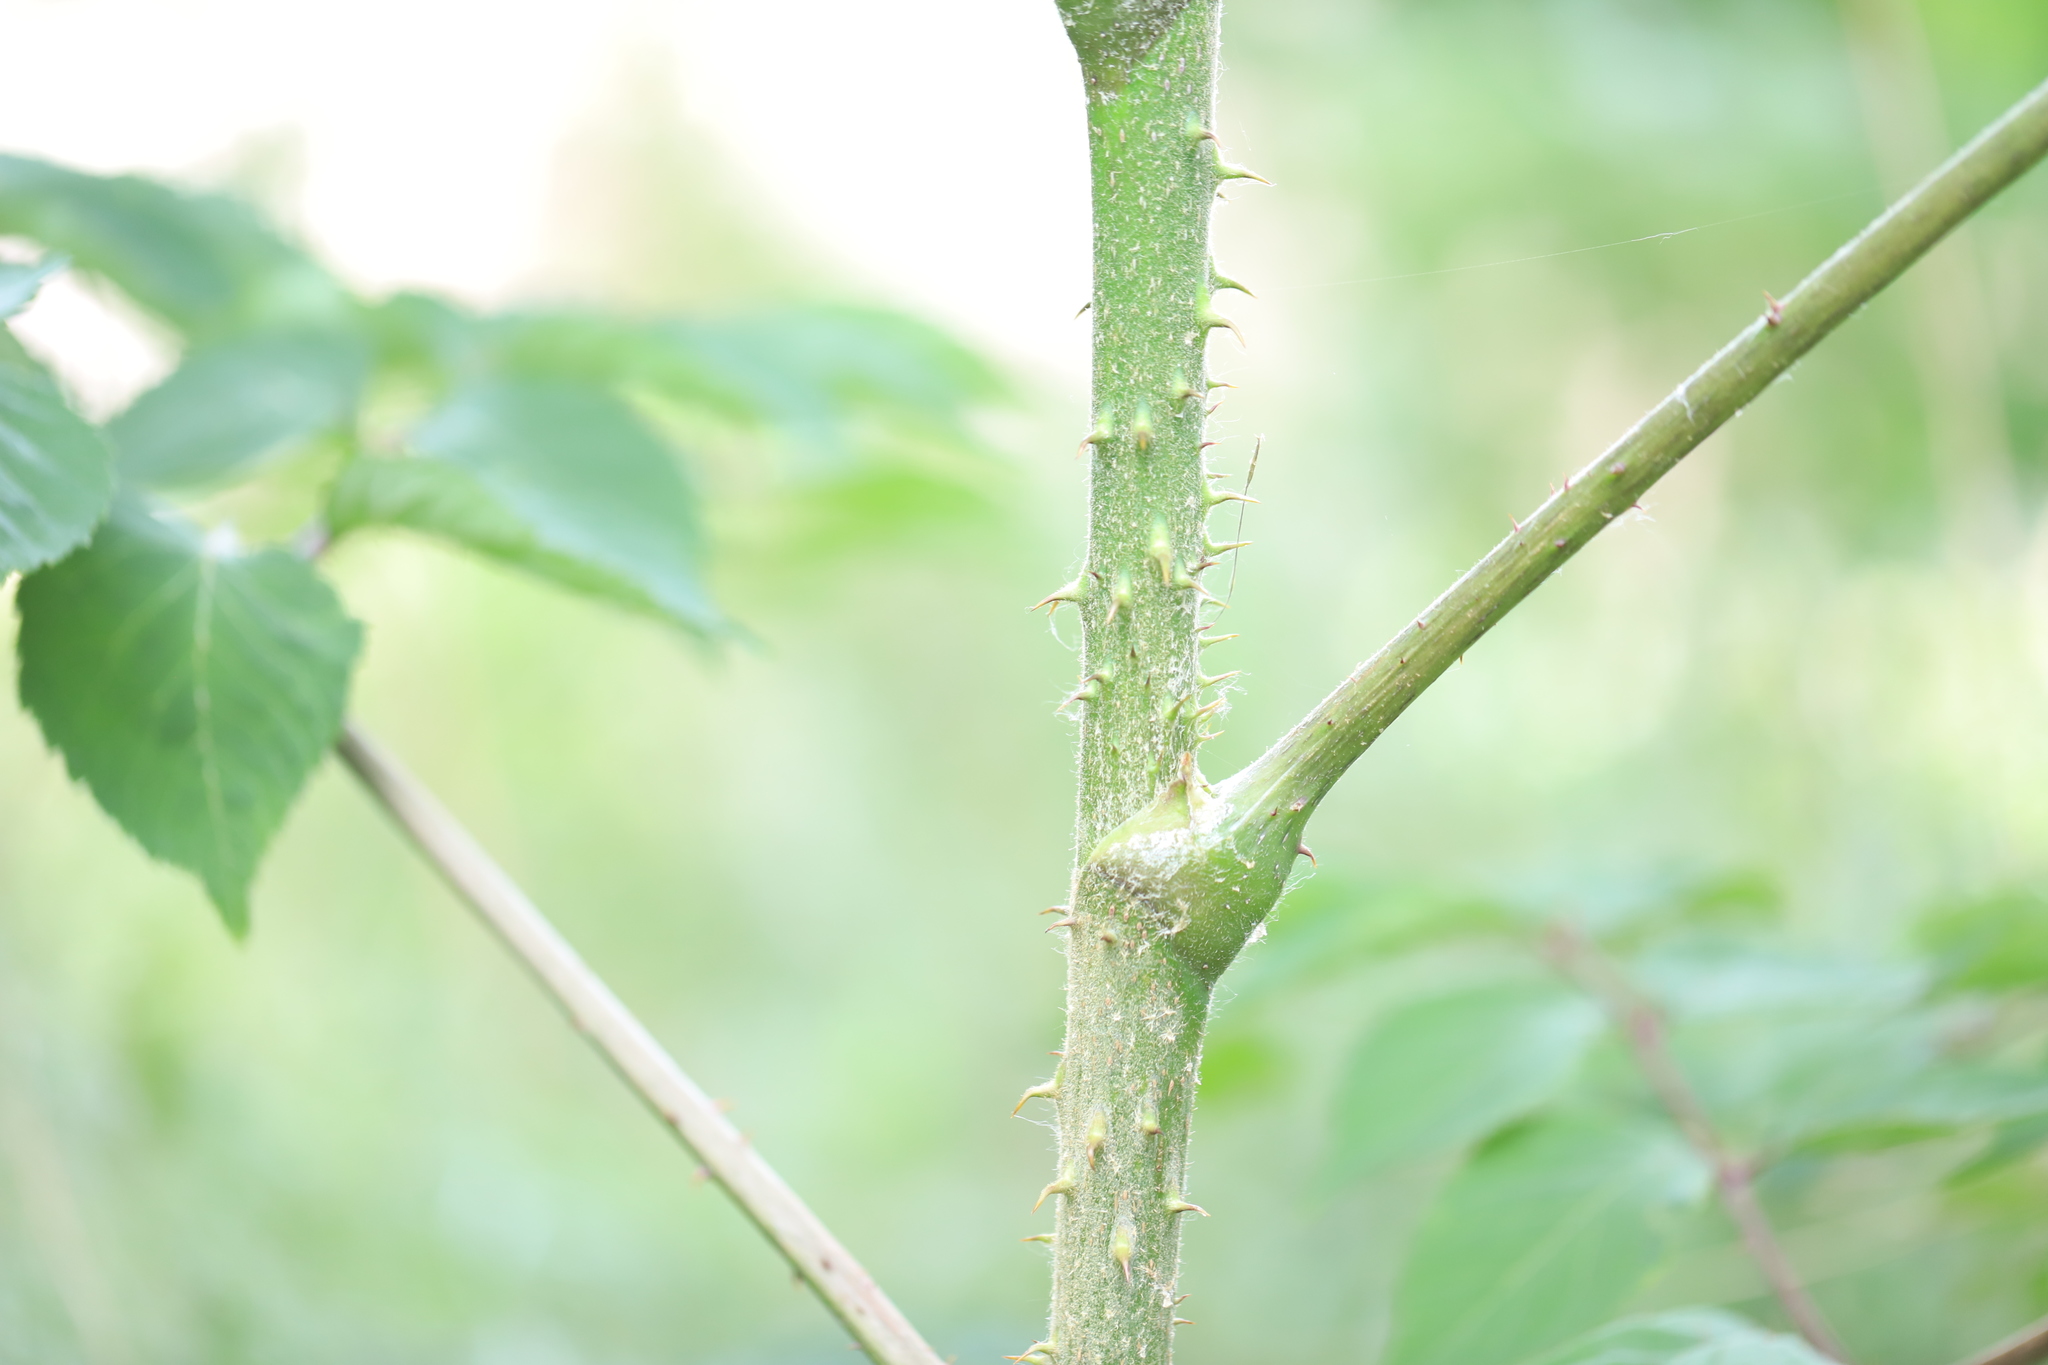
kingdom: Plantae
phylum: Tracheophyta
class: Magnoliopsida
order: Apiales
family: Araliaceae
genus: Aralia
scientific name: Aralia elata
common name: Japanese angelica-tree
